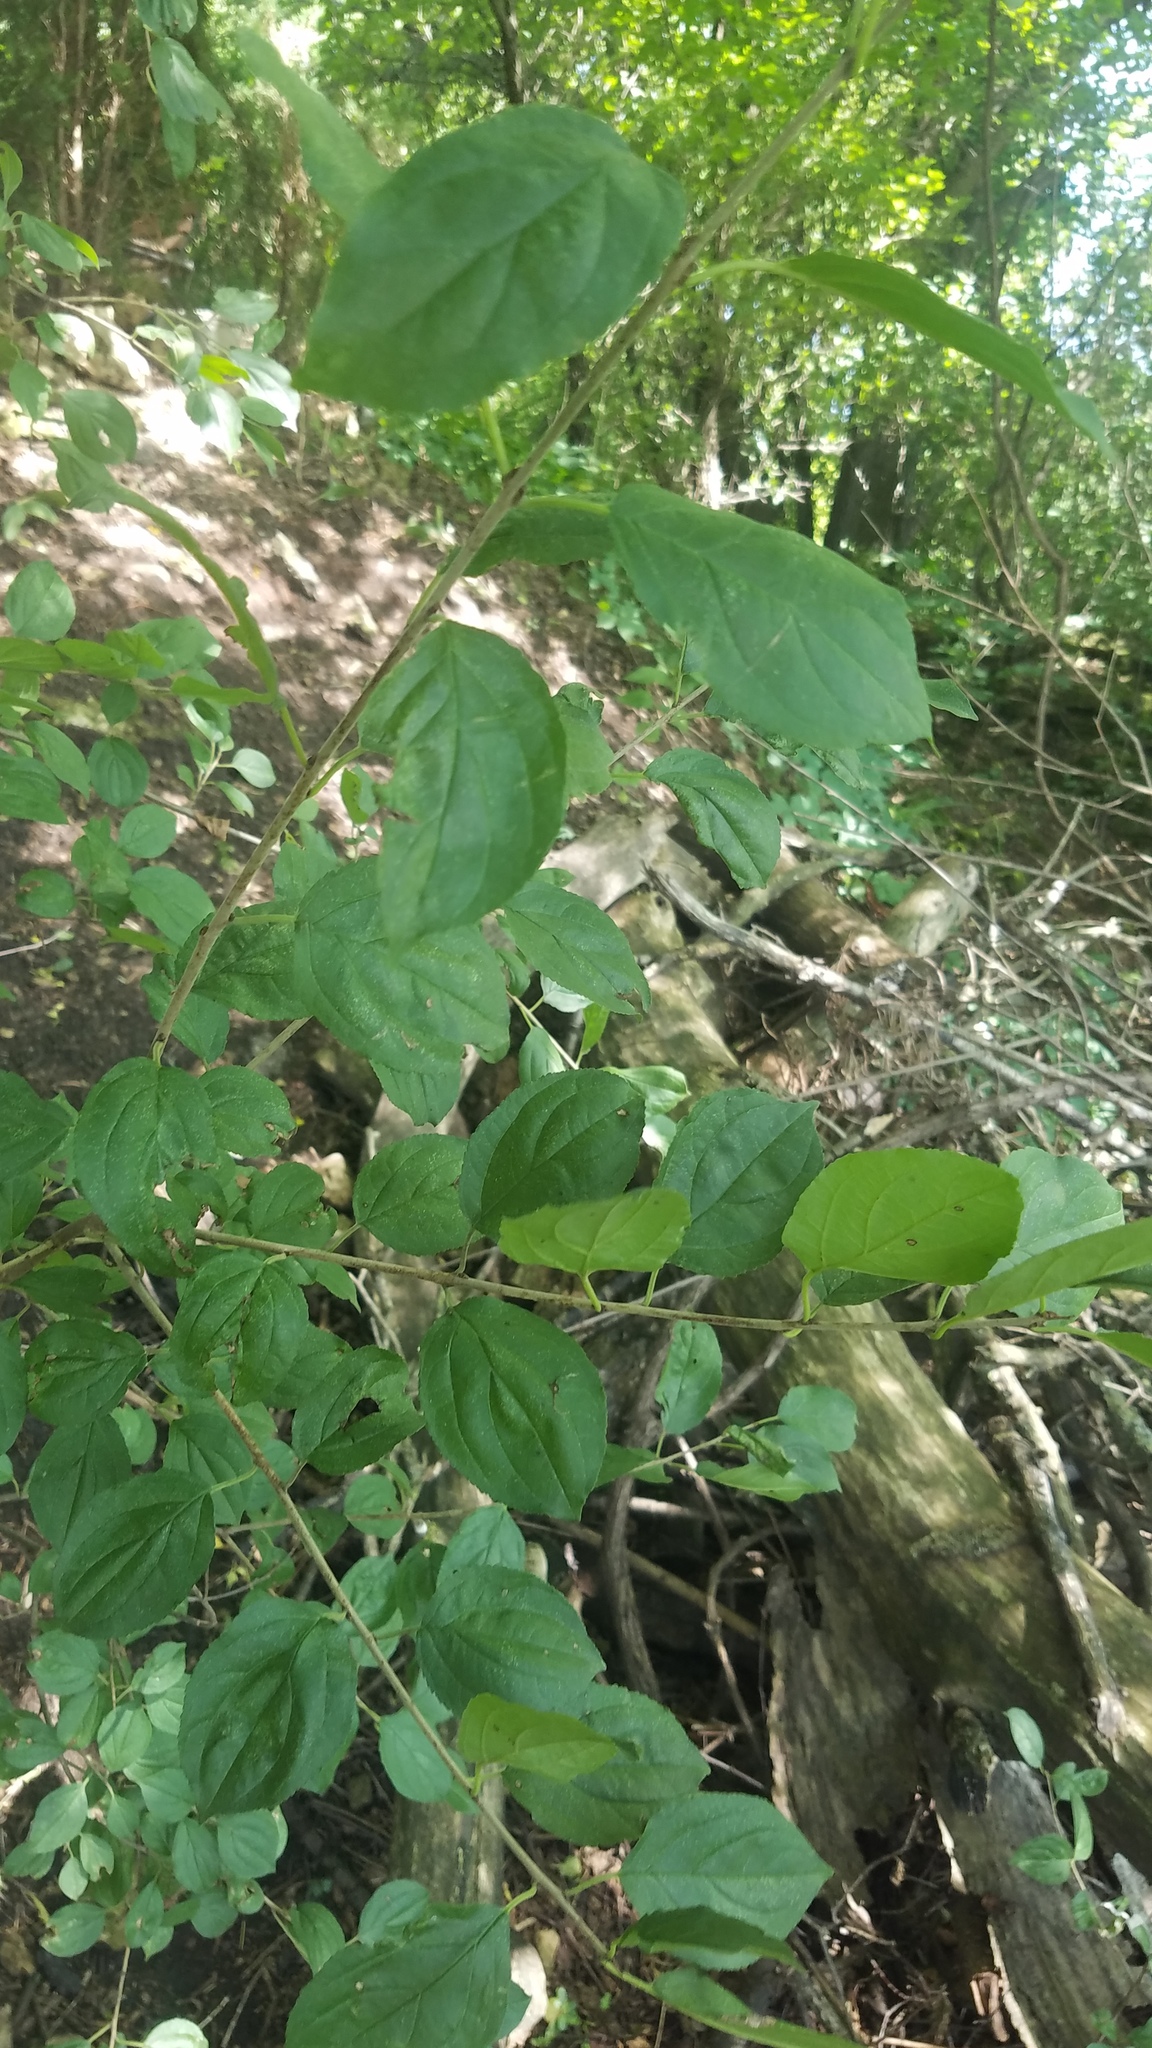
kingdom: Plantae
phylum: Tracheophyta
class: Magnoliopsida
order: Rosales
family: Rhamnaceae
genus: Rhamnus
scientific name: Rhamnus cathartica
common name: Common buckthorn
